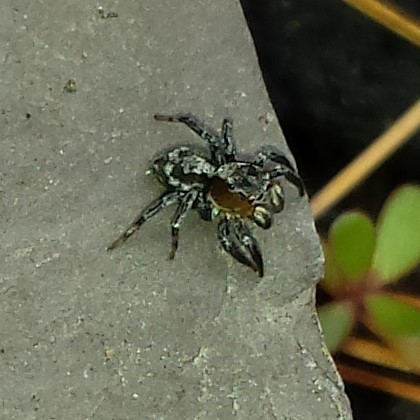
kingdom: Animalia
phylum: Arthropoda
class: Arachnida
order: Araneae
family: Salticidae
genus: Naphrys
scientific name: Naphrys pulex
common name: Flea jumping spider
